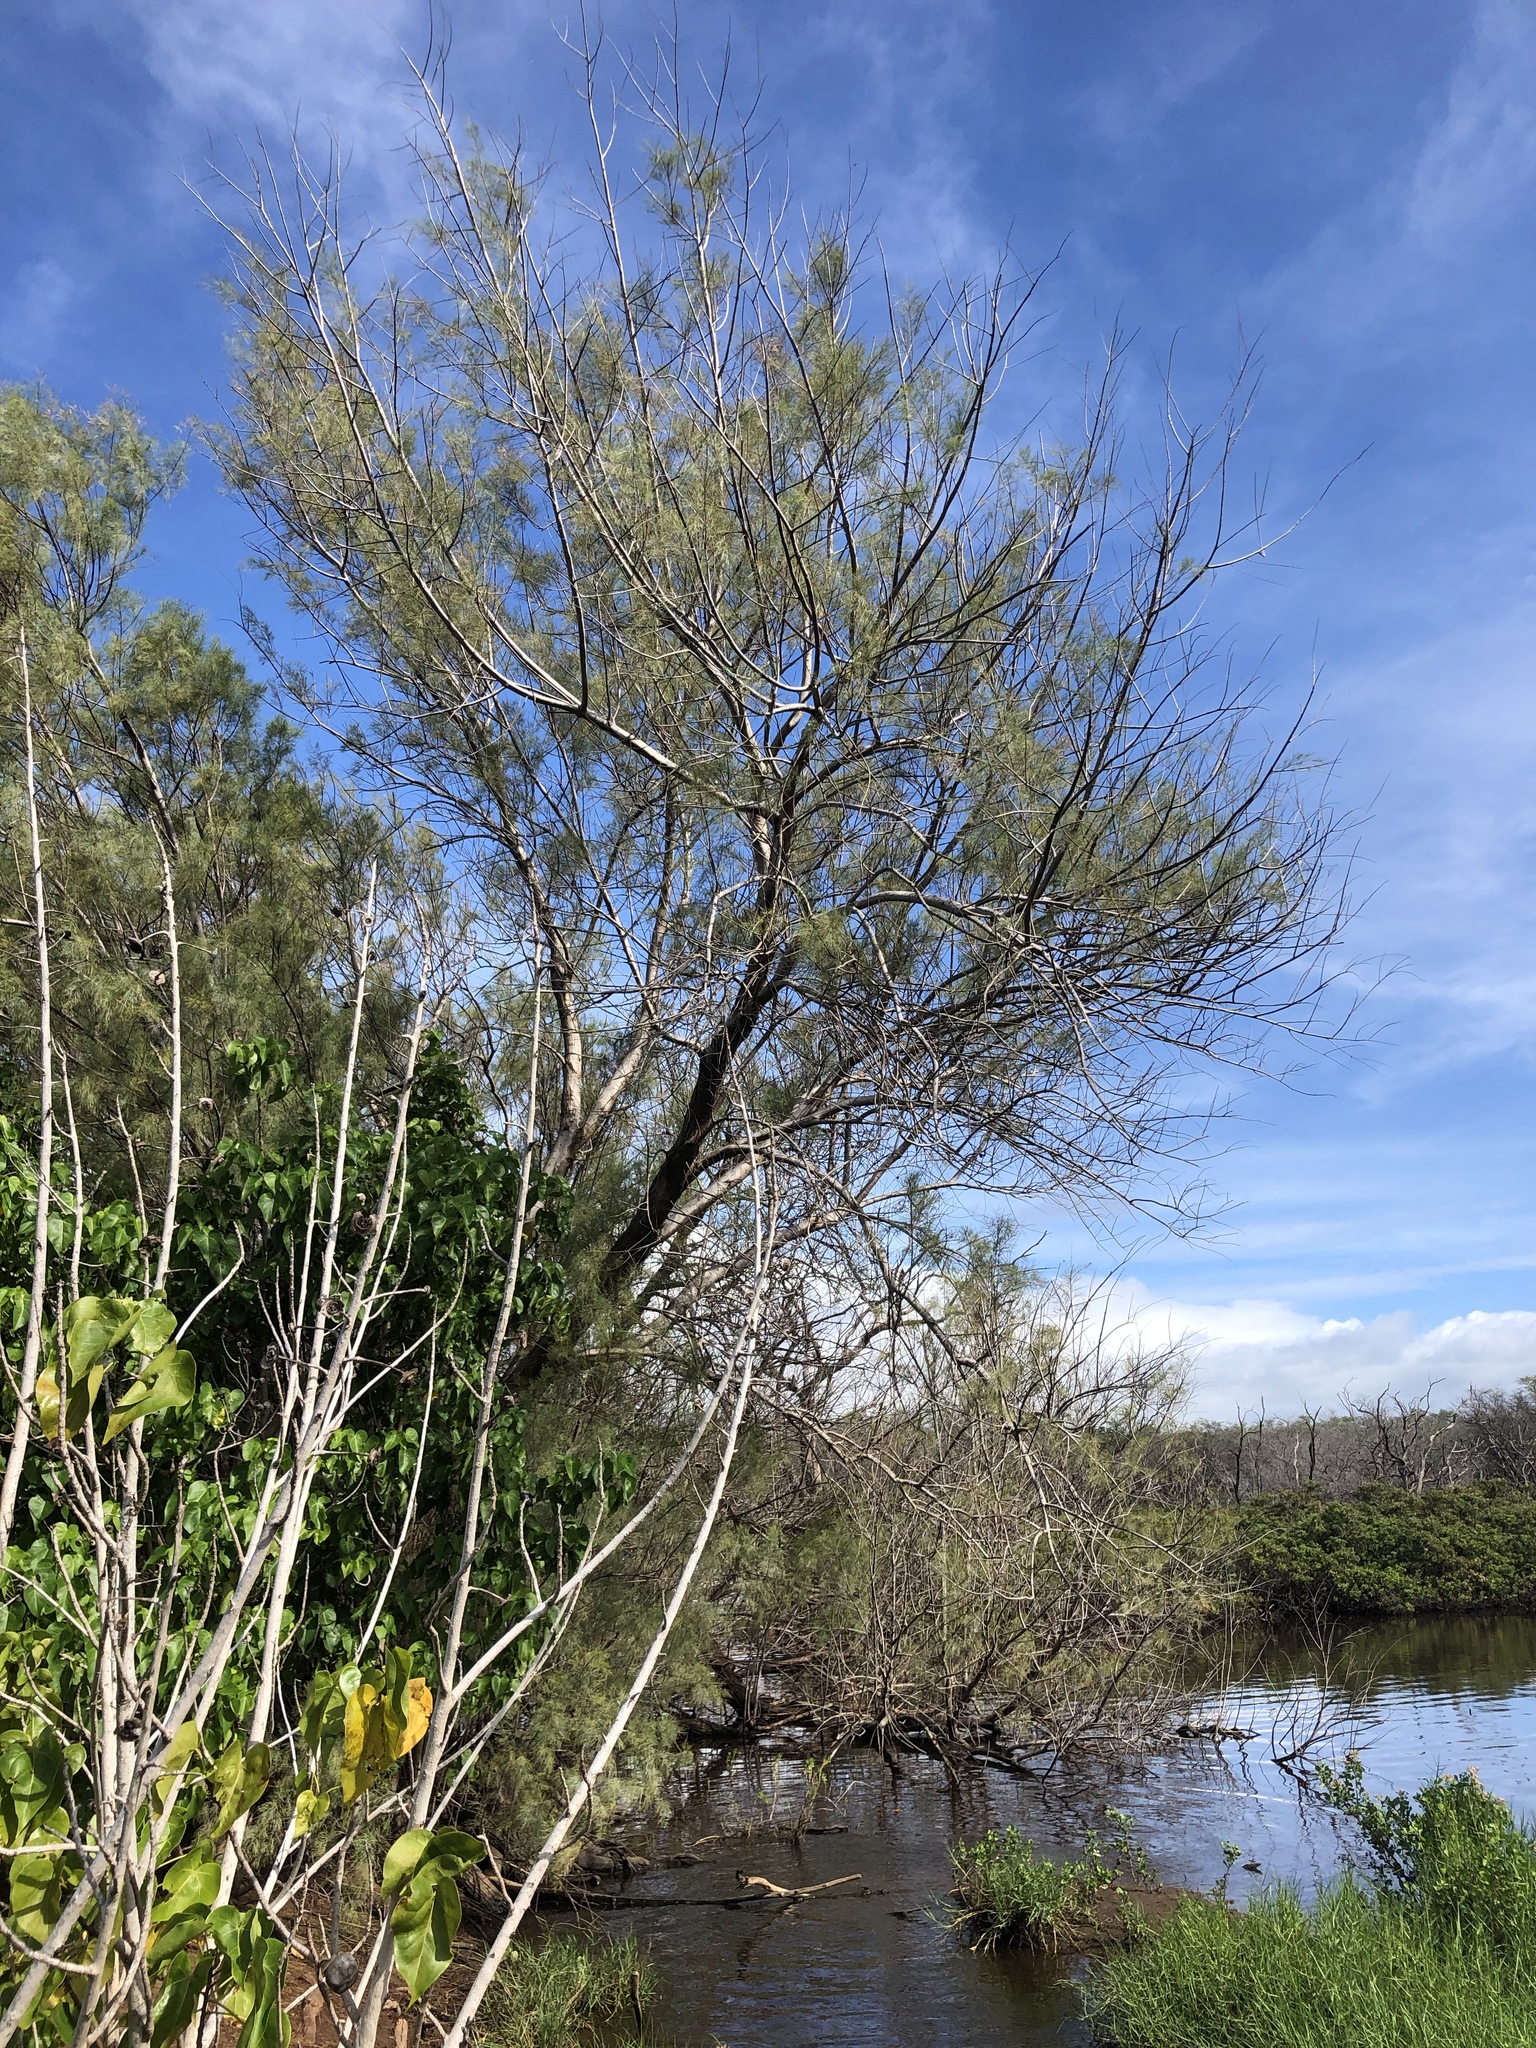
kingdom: Plantae
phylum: Tracheophyta
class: Magnoliopsida
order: Caryophyllales
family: Tamaricaceae
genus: Tamarix
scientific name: Tamarix aphylla
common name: Athel tamarisk
